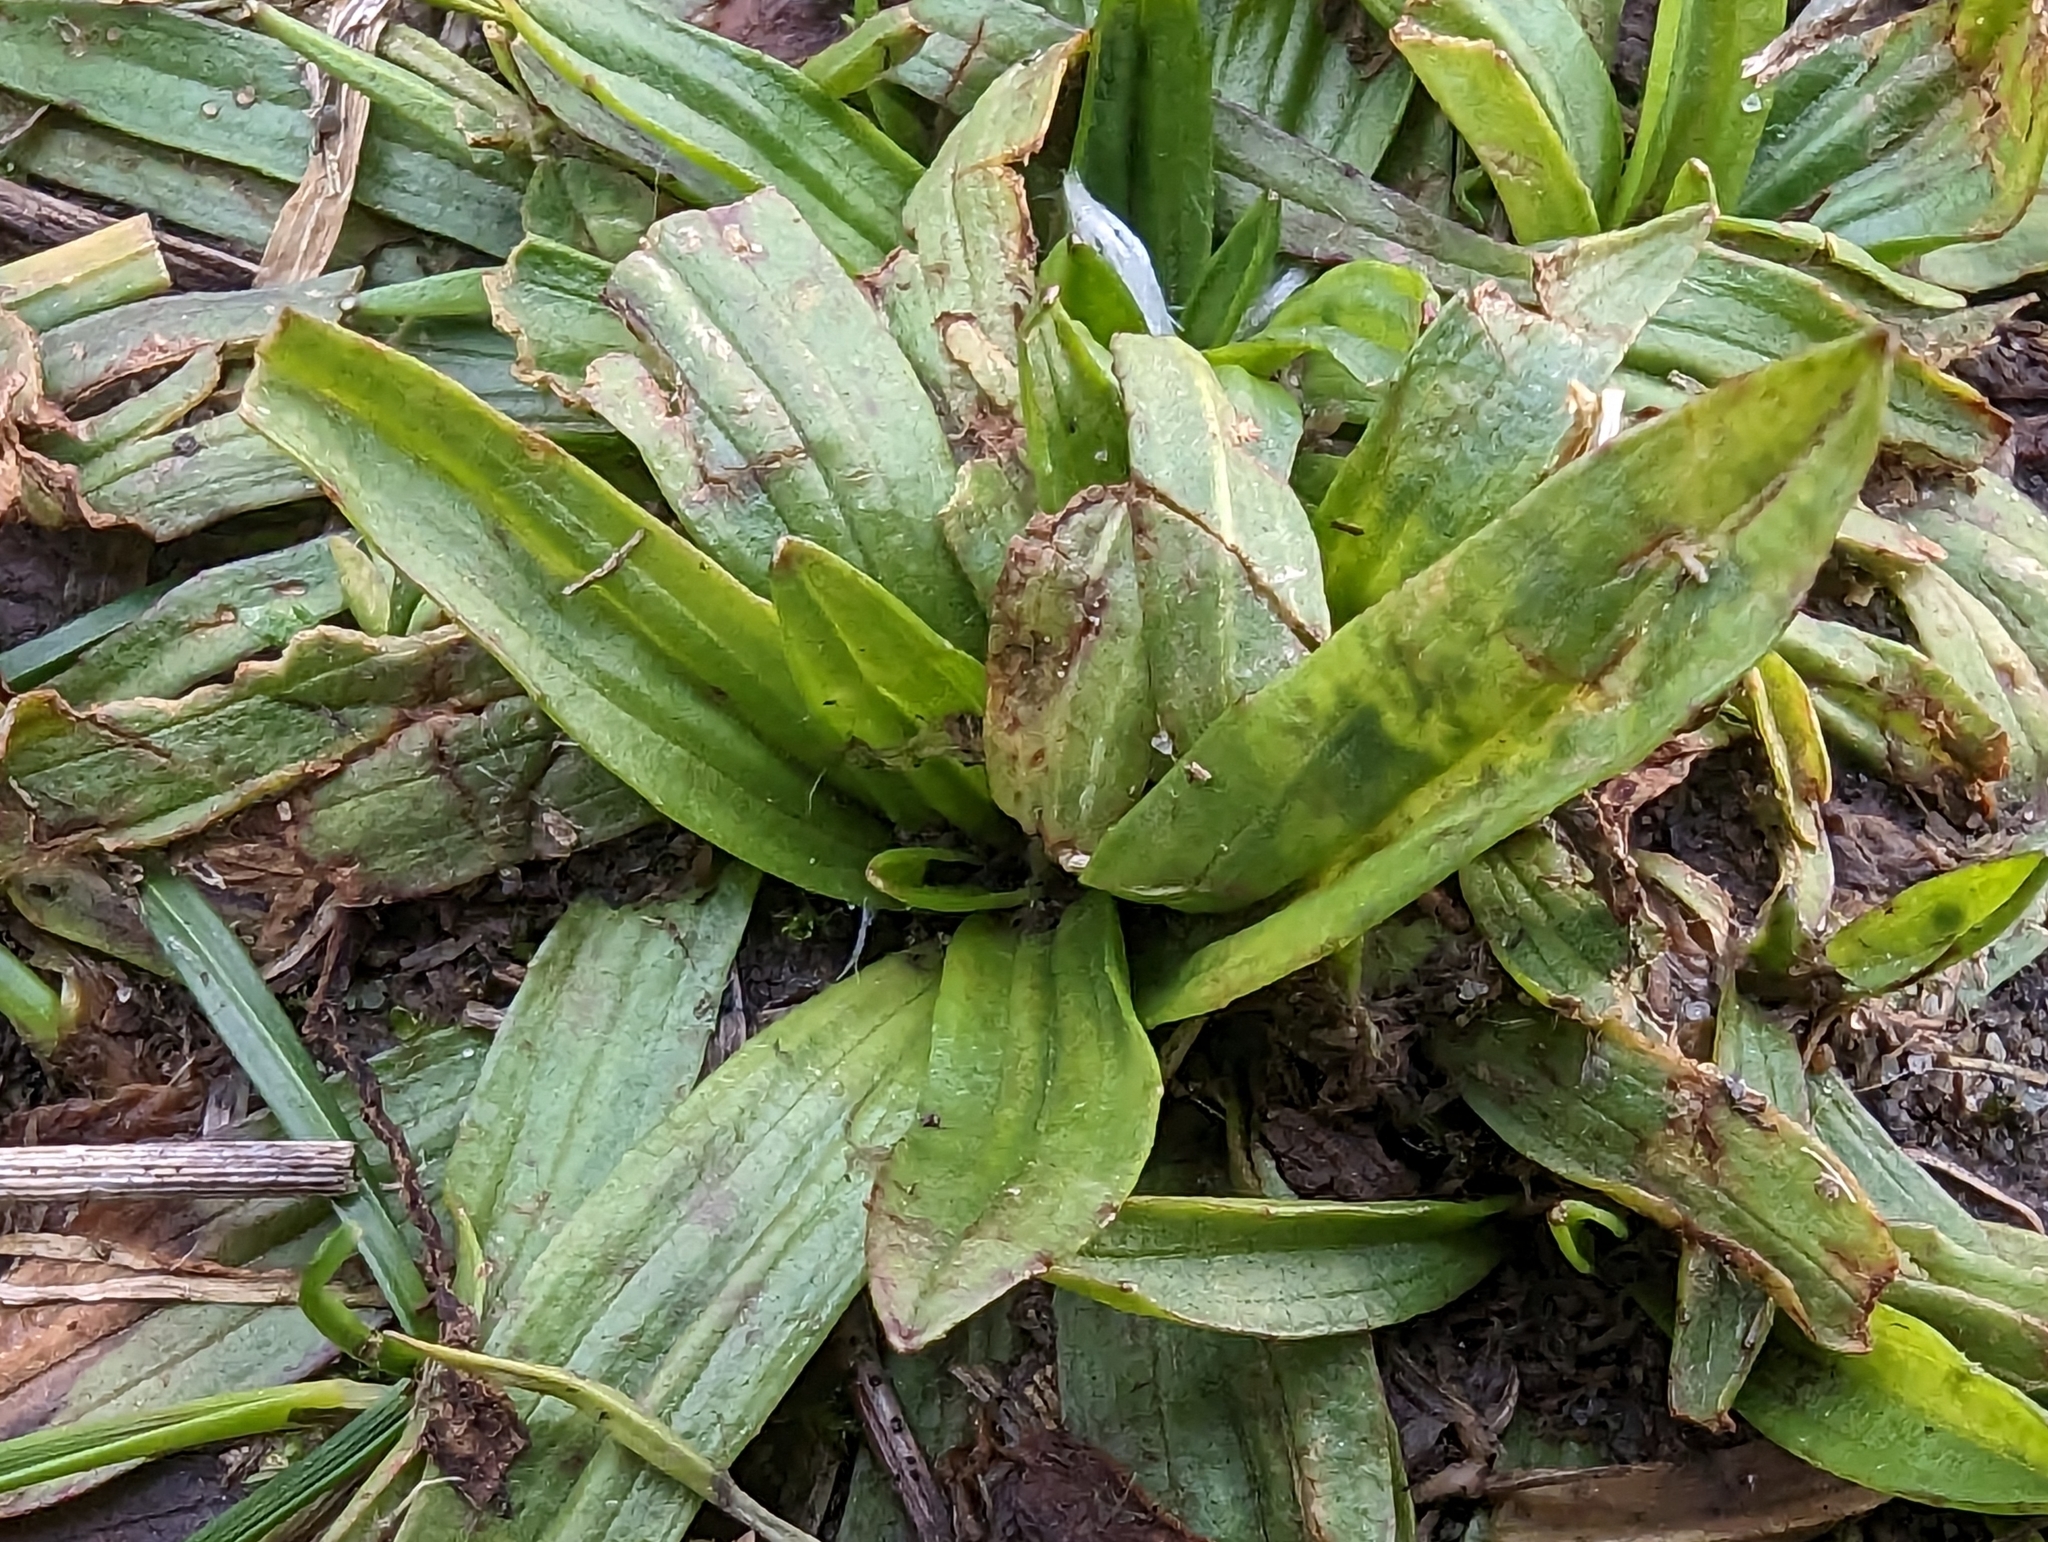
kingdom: Plantae
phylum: Tracheophyta
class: Magnoliopsida
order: Lamiales
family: Plantaginaceae
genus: Plantago
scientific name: Plantago lanceolata
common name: Ribwort plantain
